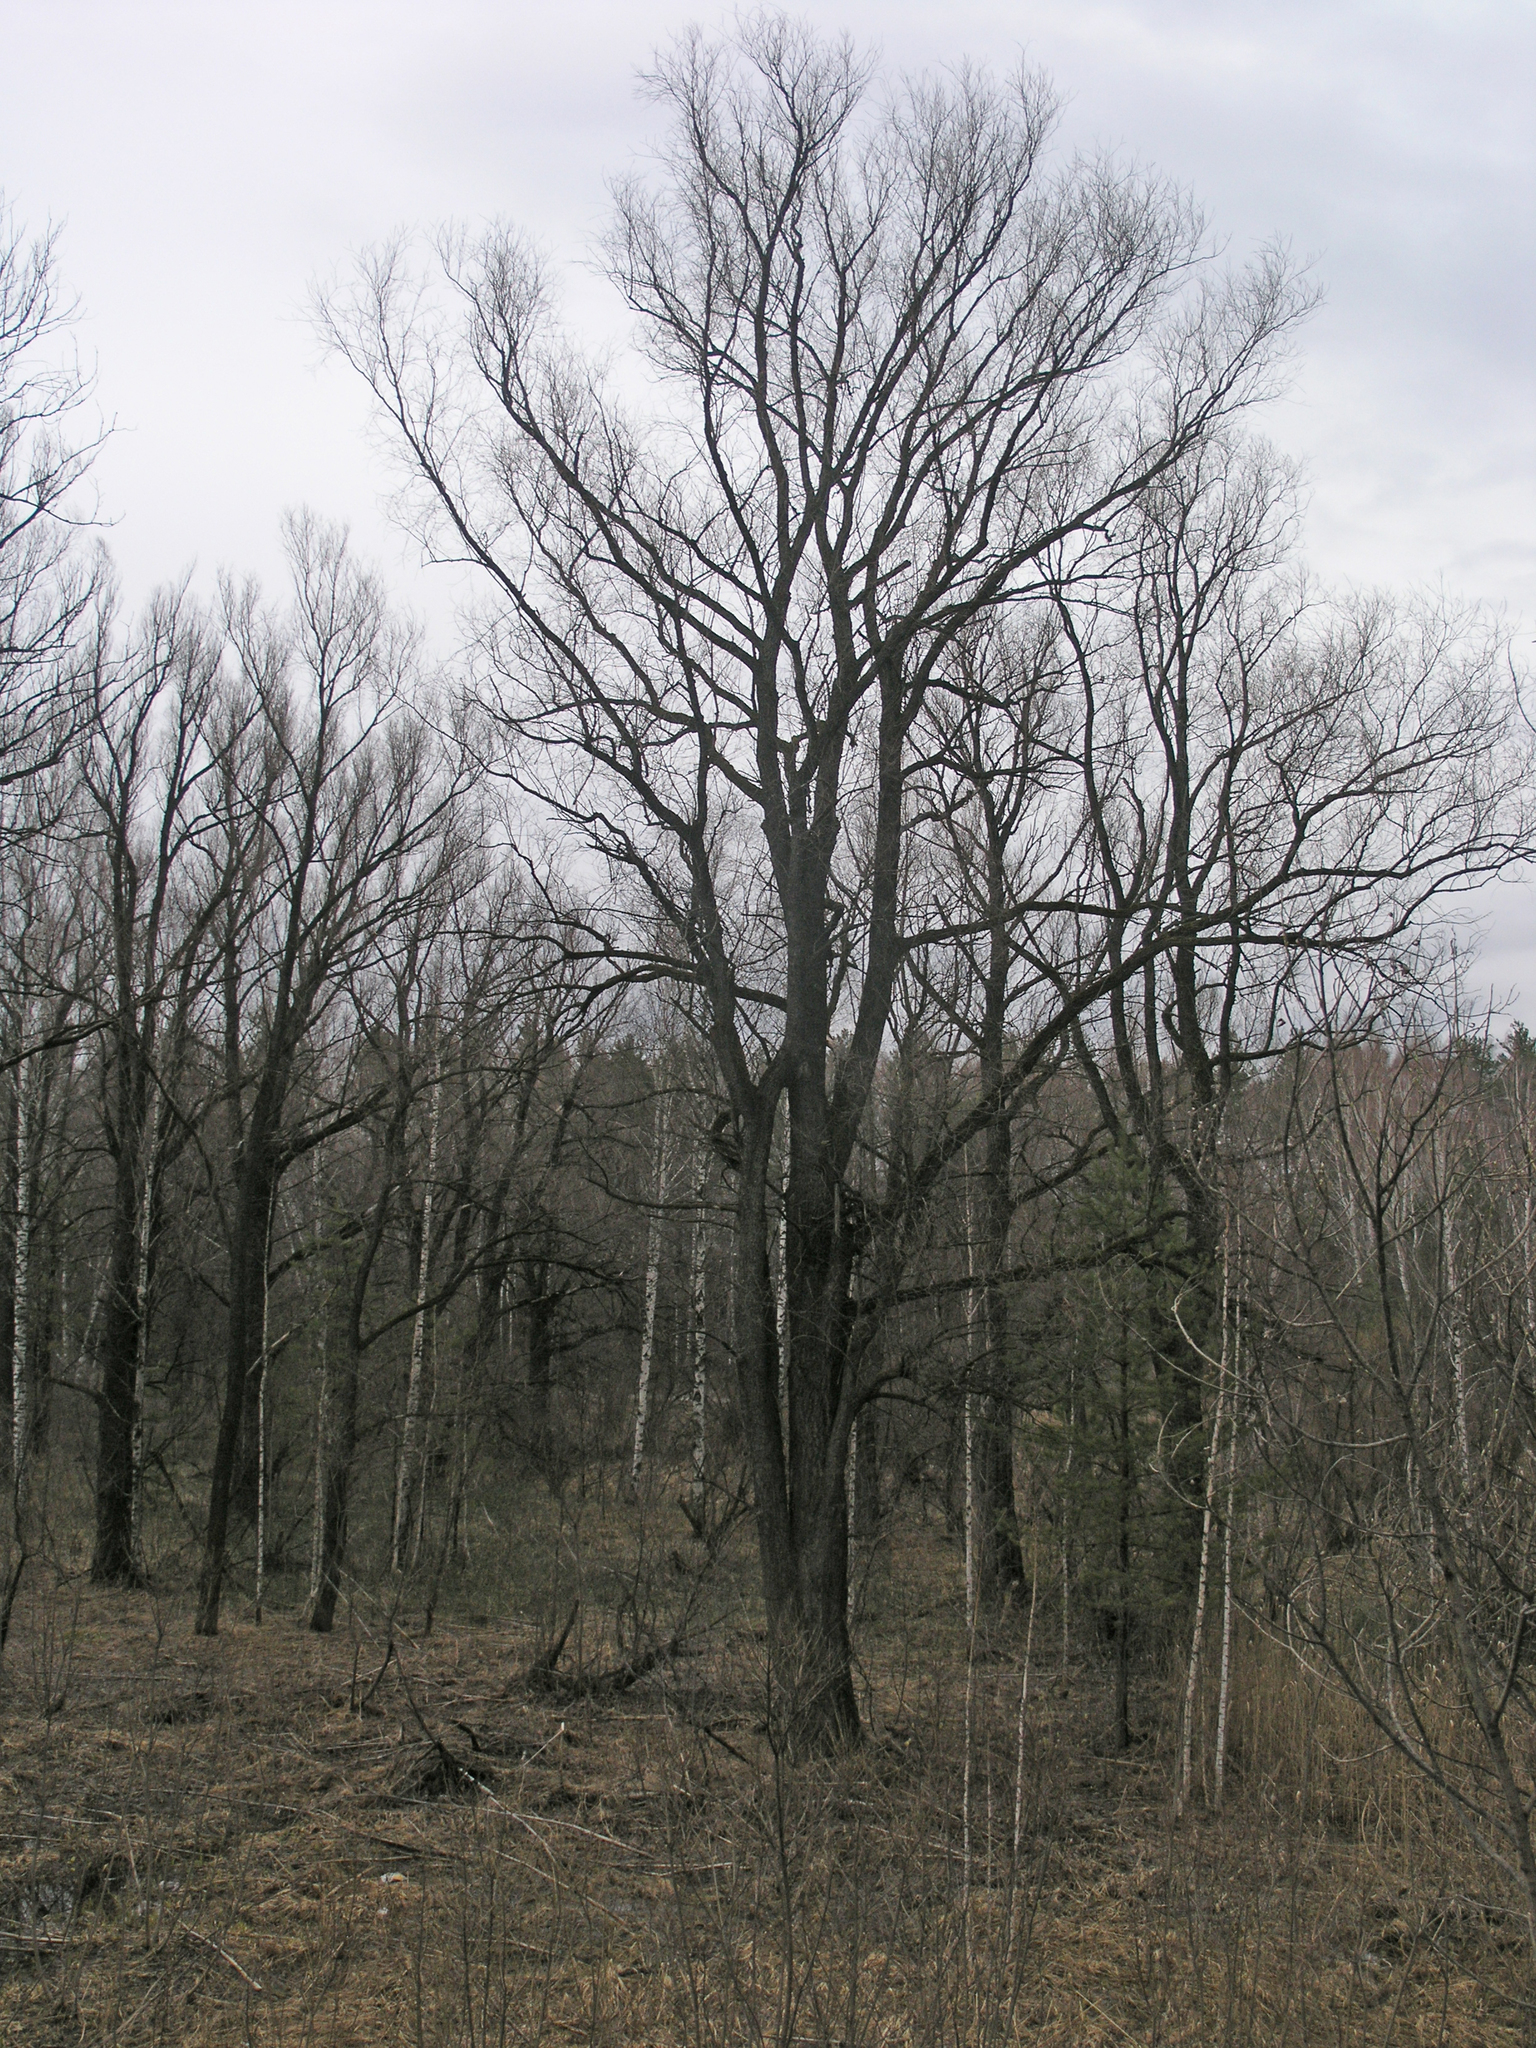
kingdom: Plantae
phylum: Tracheophyta
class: Magnoliopsida
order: Malpighiales
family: Salicaceae
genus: Salix
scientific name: Salix alba
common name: White willow
